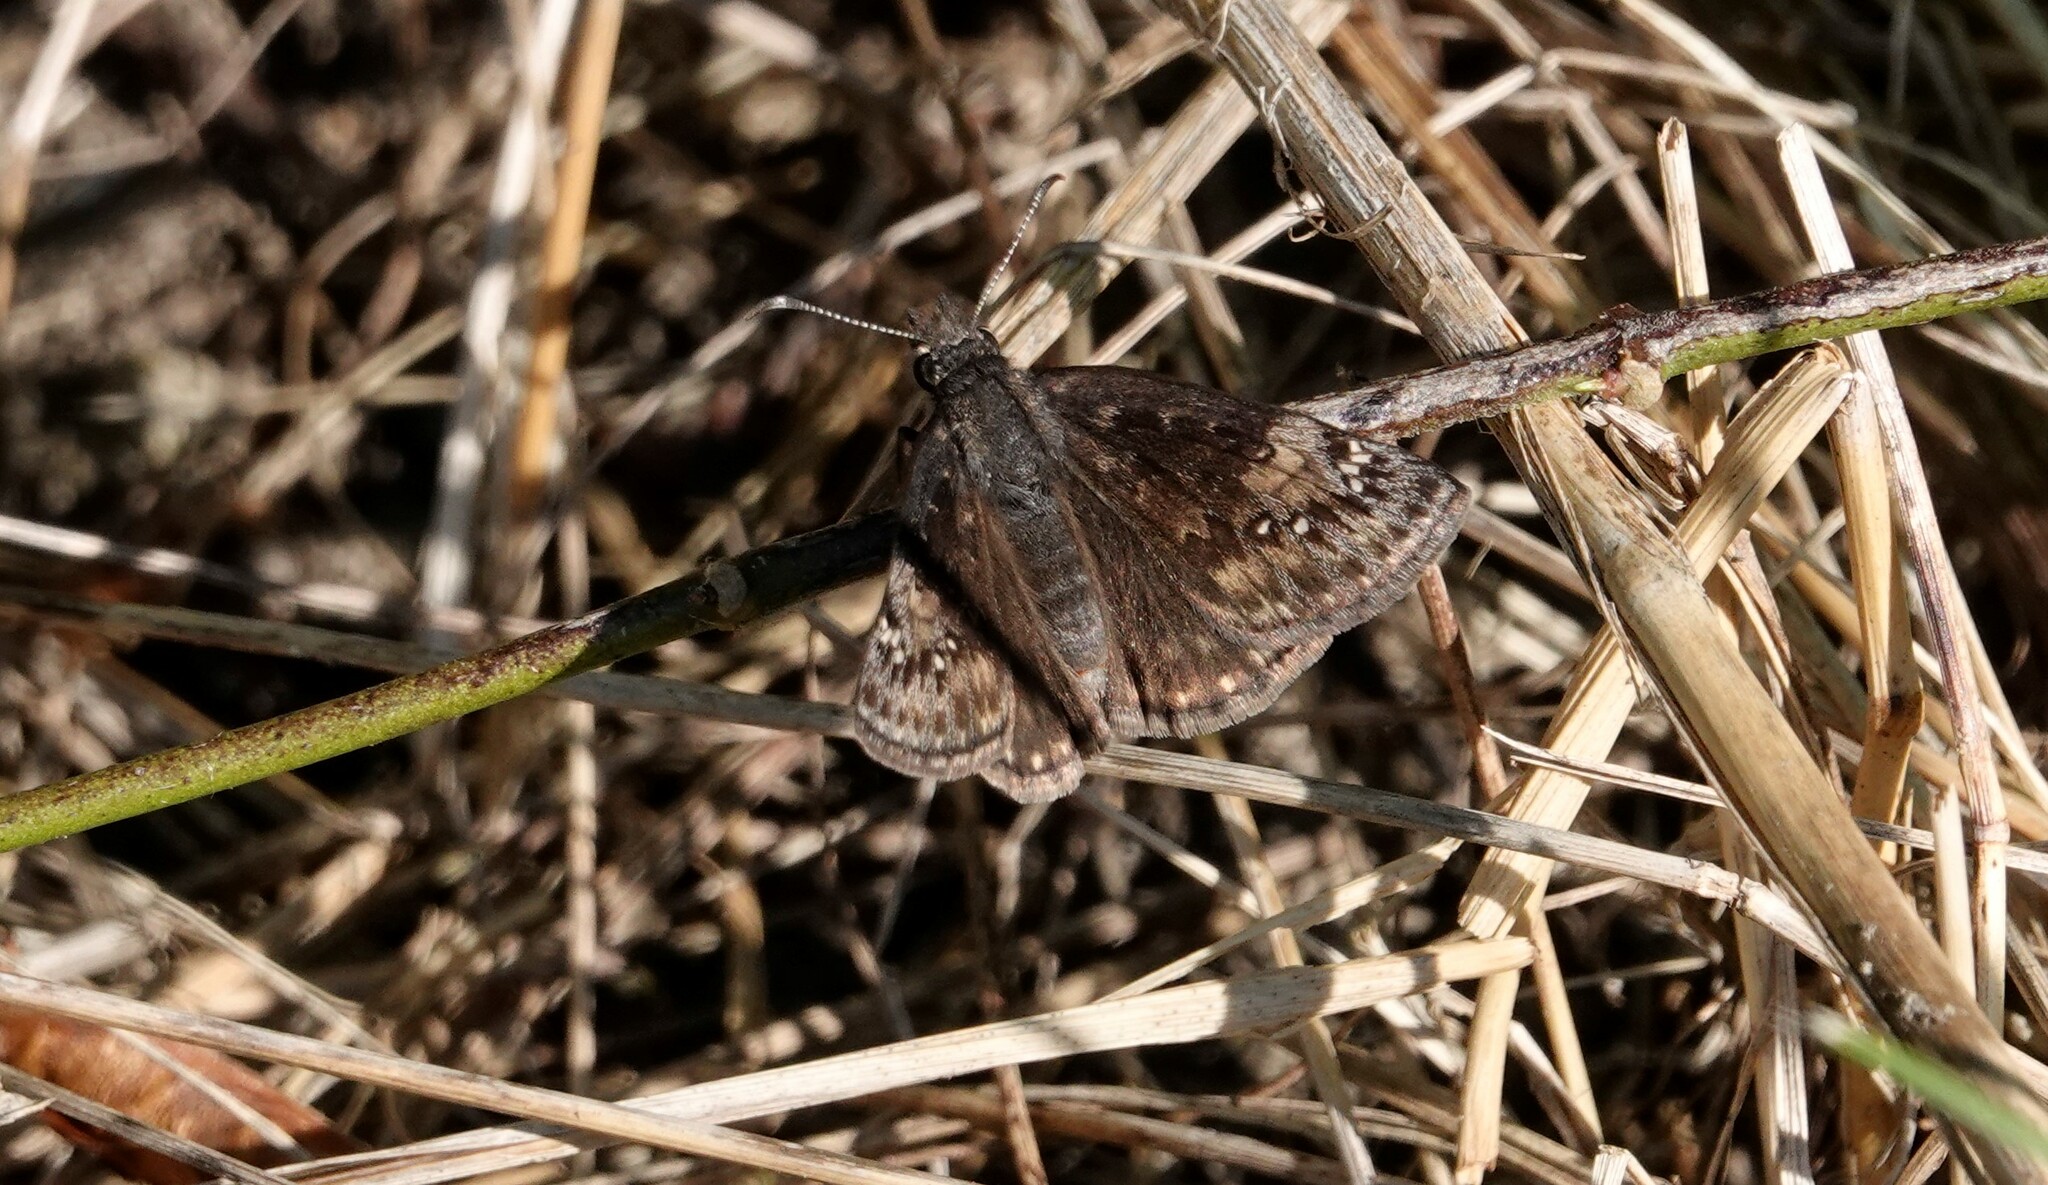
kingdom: Animalia
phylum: Arthropoda
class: Insecta
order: Lepidoptera
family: Hesperiidae
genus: Erynnis
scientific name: Erynnis baptisiae
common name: Wild indigo duskywing
